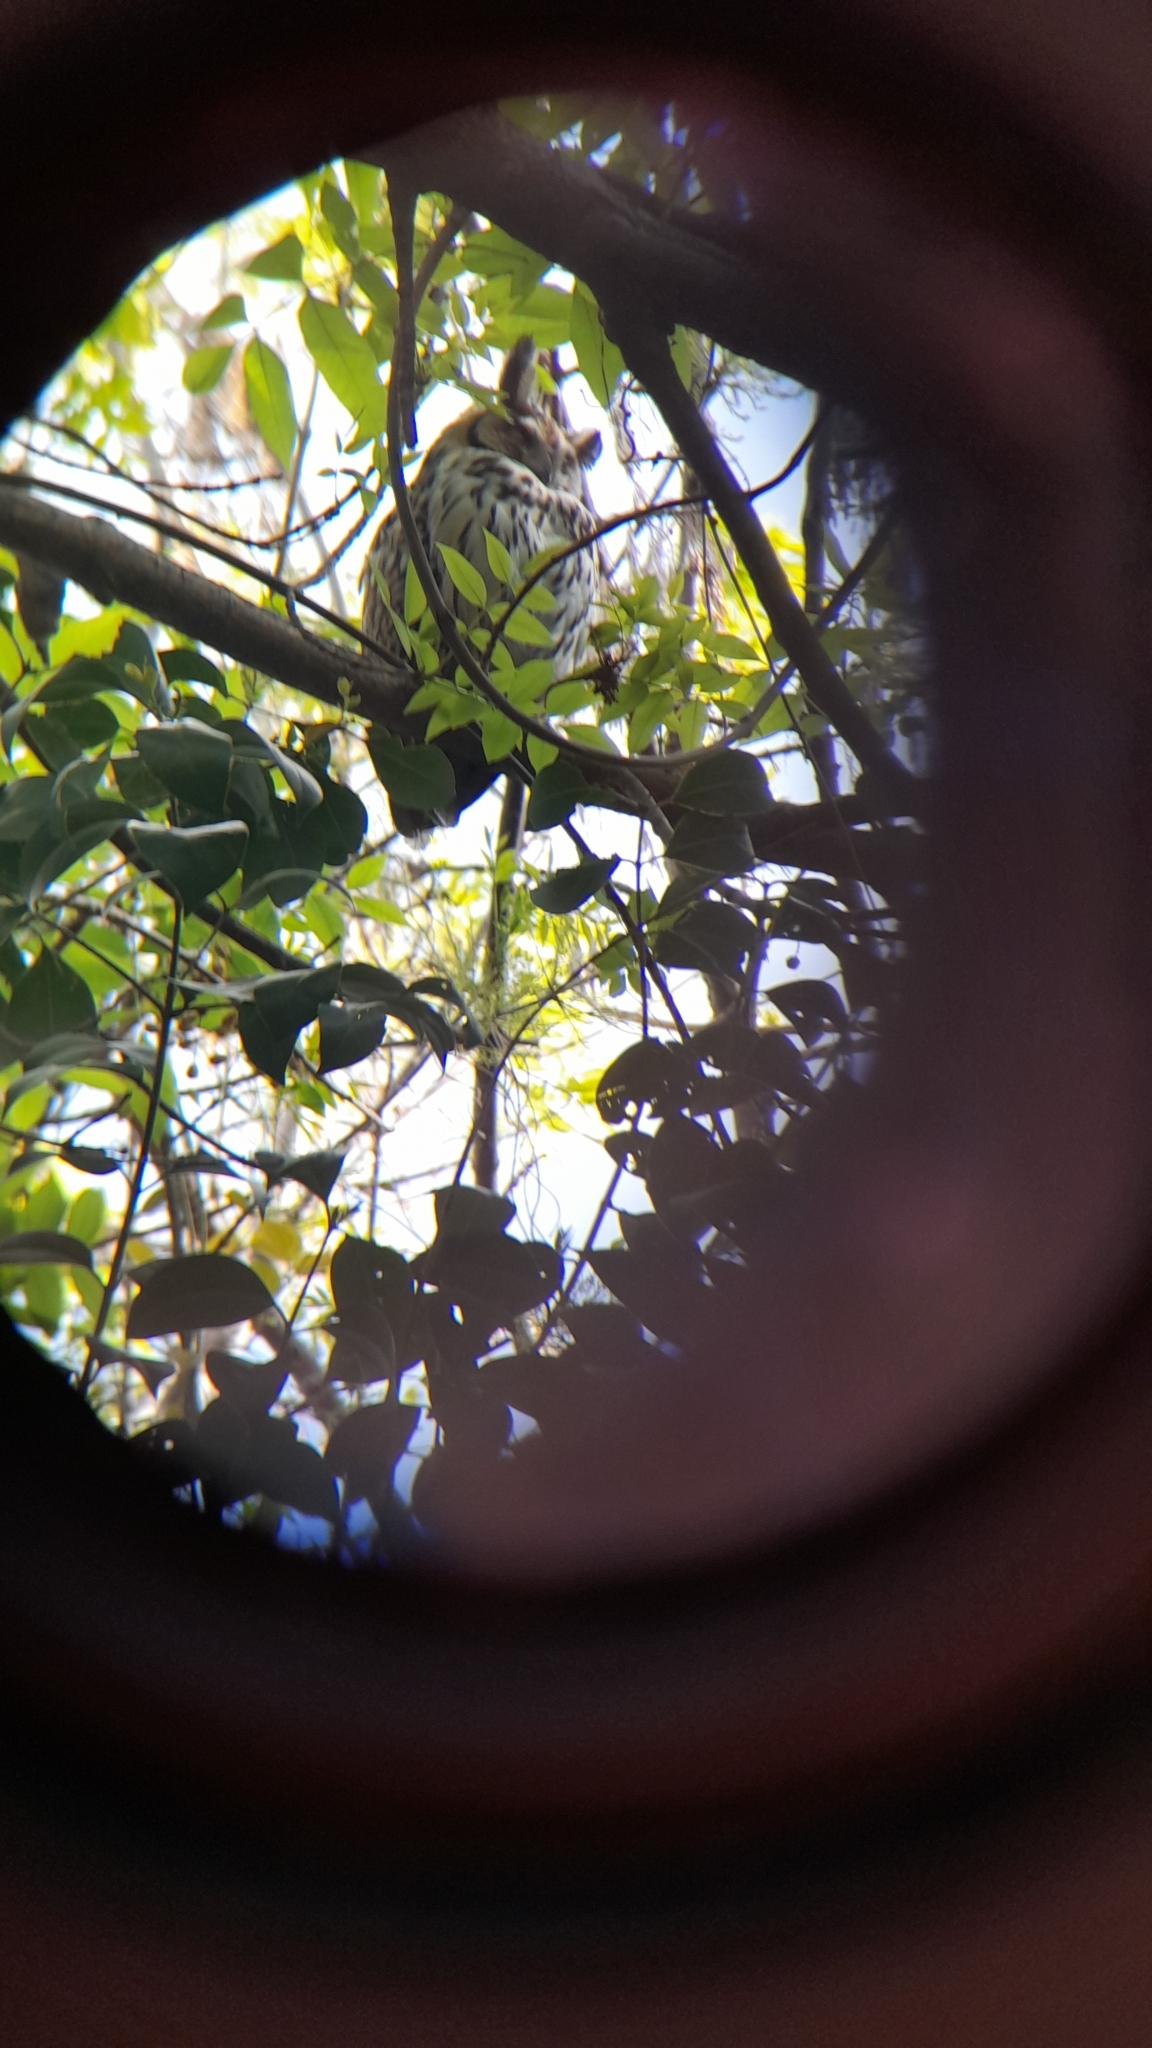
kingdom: Animalia
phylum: Chordata
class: Aves
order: Strigiformes
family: Strigidae
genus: Pseudoscops
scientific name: Pseudoscops clamator
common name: Striped owl
